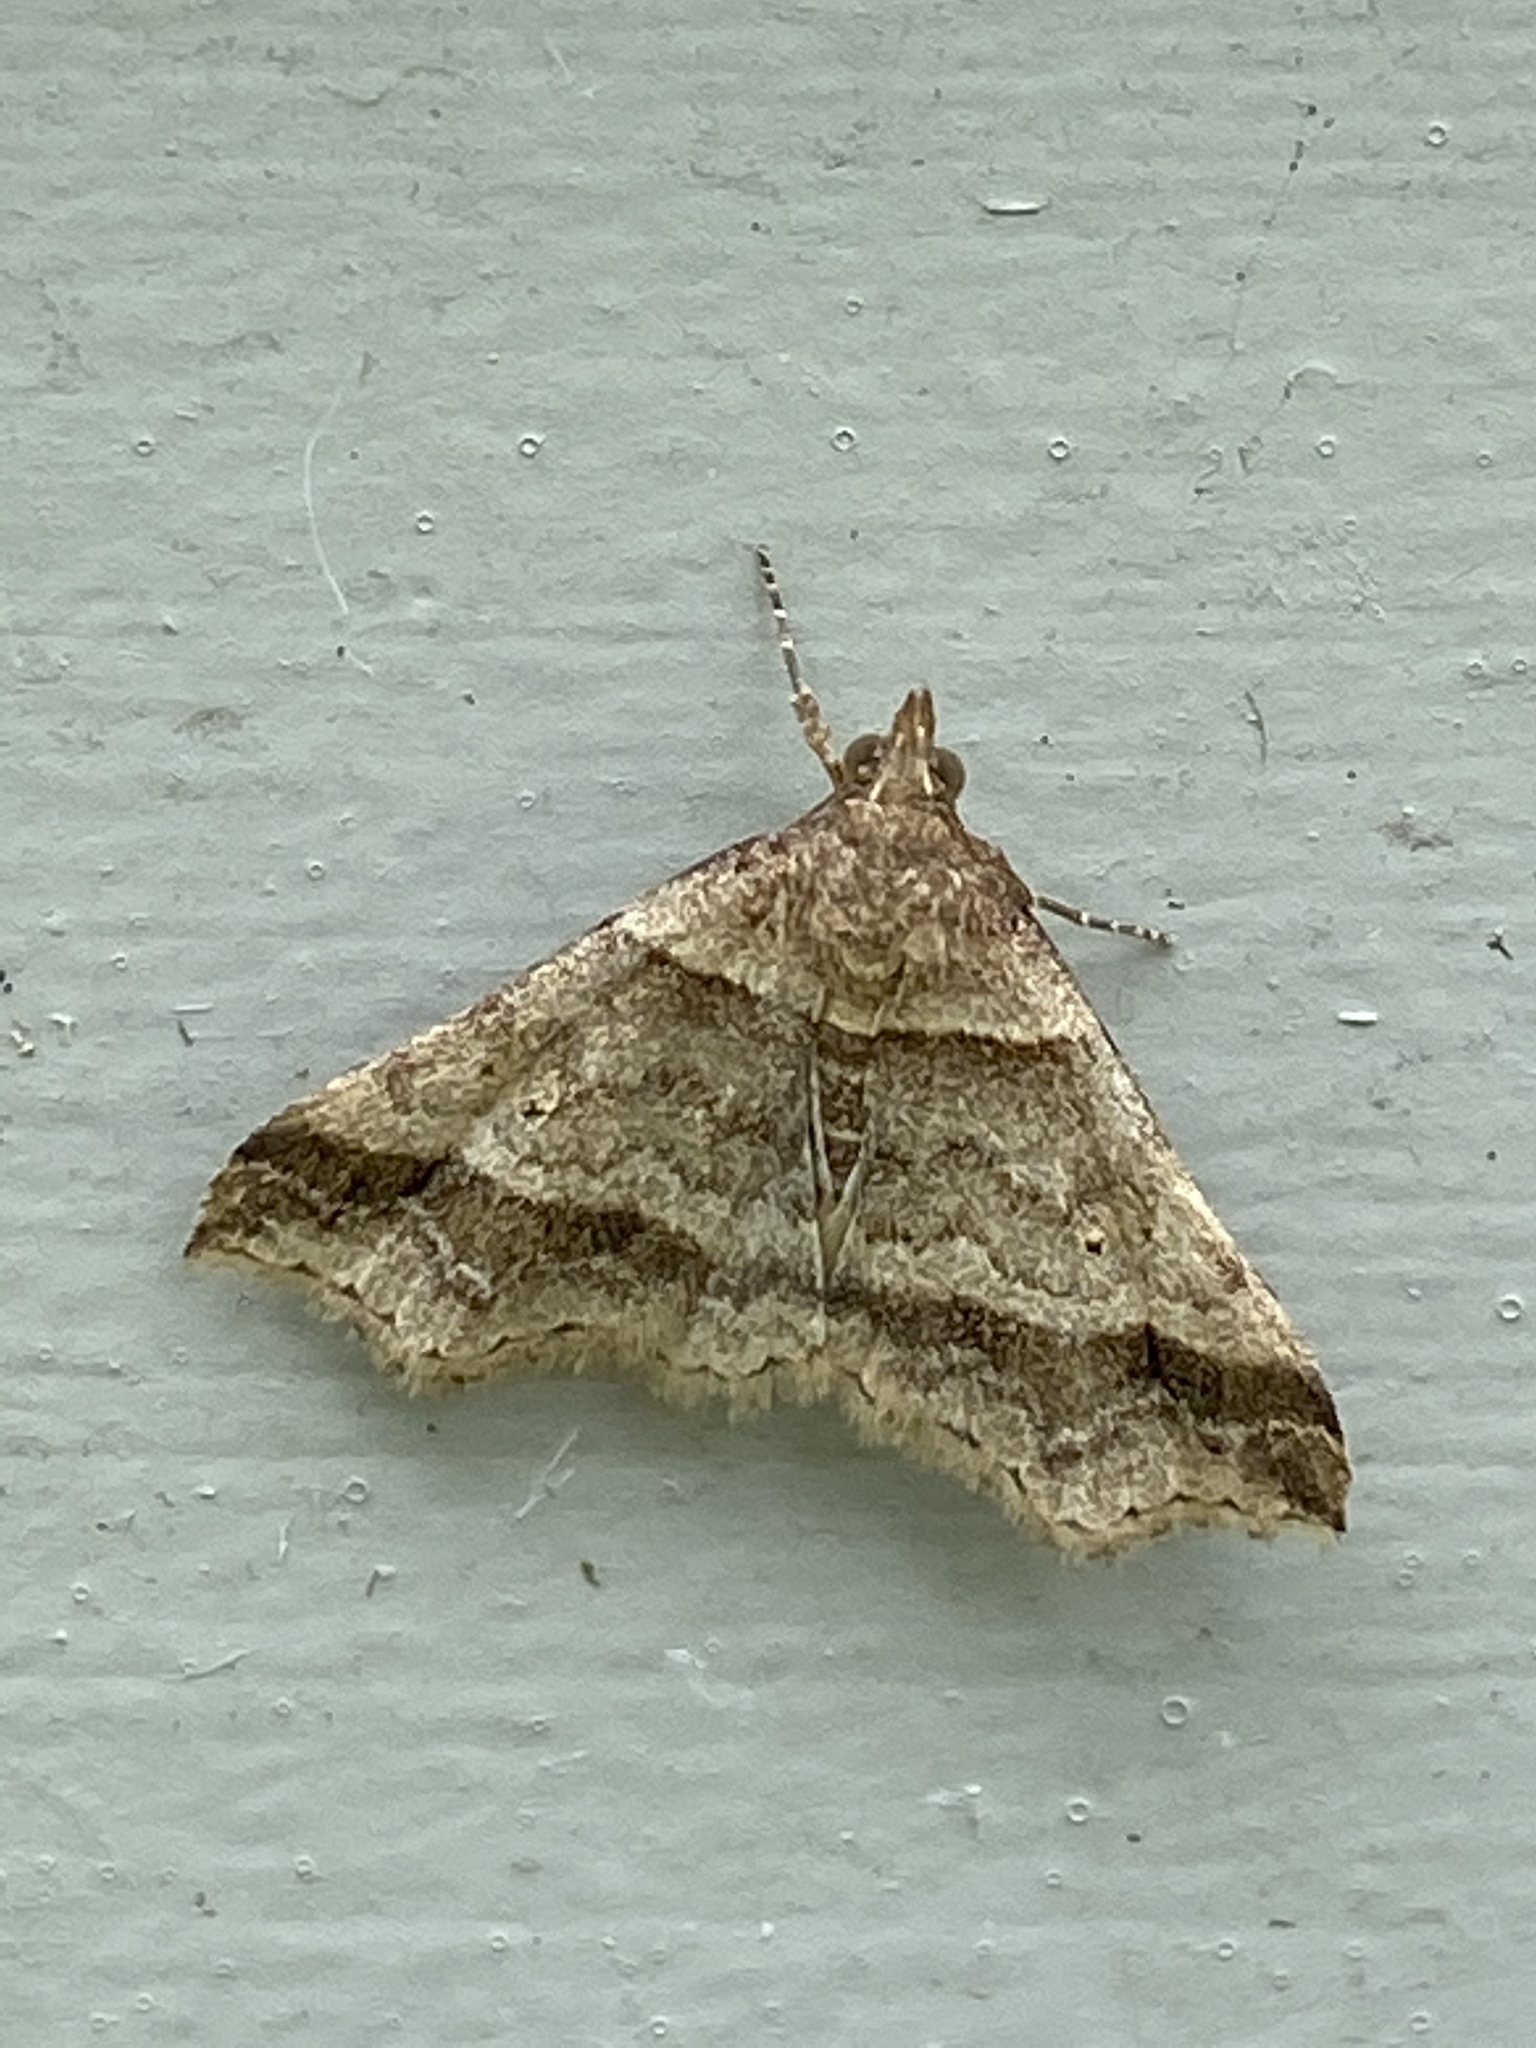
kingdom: Animalia
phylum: Arthropoda
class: Insecta
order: Lepidoptera
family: Erebidae
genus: Phaeolita
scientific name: Phaeolita pyramusalis
